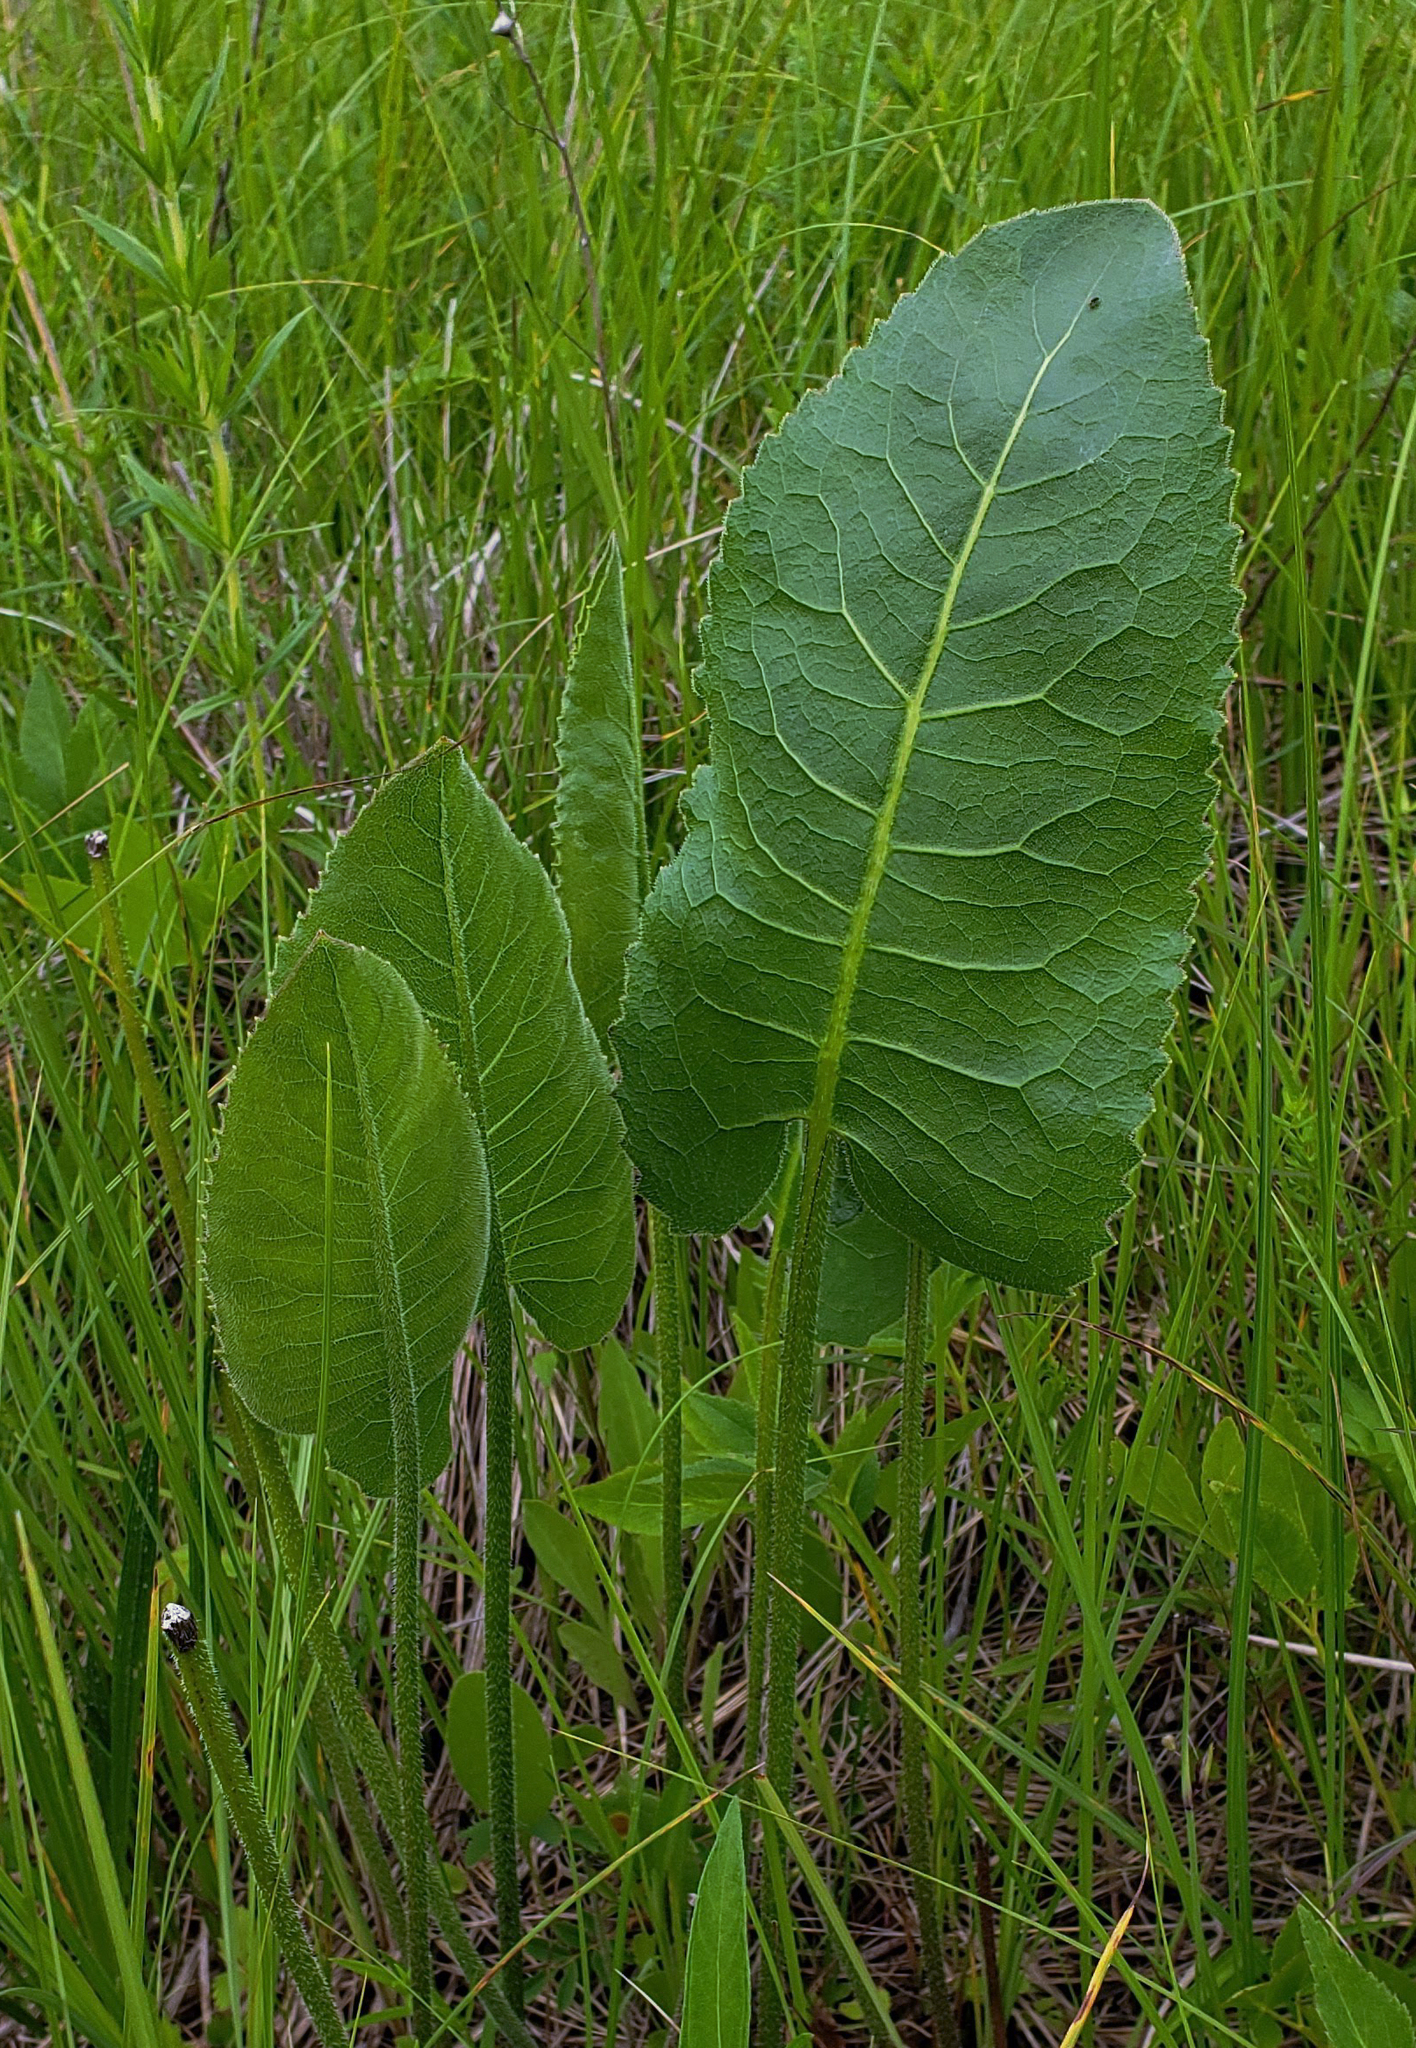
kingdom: Plantae
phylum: Tracheophyta
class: Magnoliopsida
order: Asterales
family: Asteraceae
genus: Silphium
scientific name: Silphium terebinthinaceum
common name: Basal-leaf rosinweed
